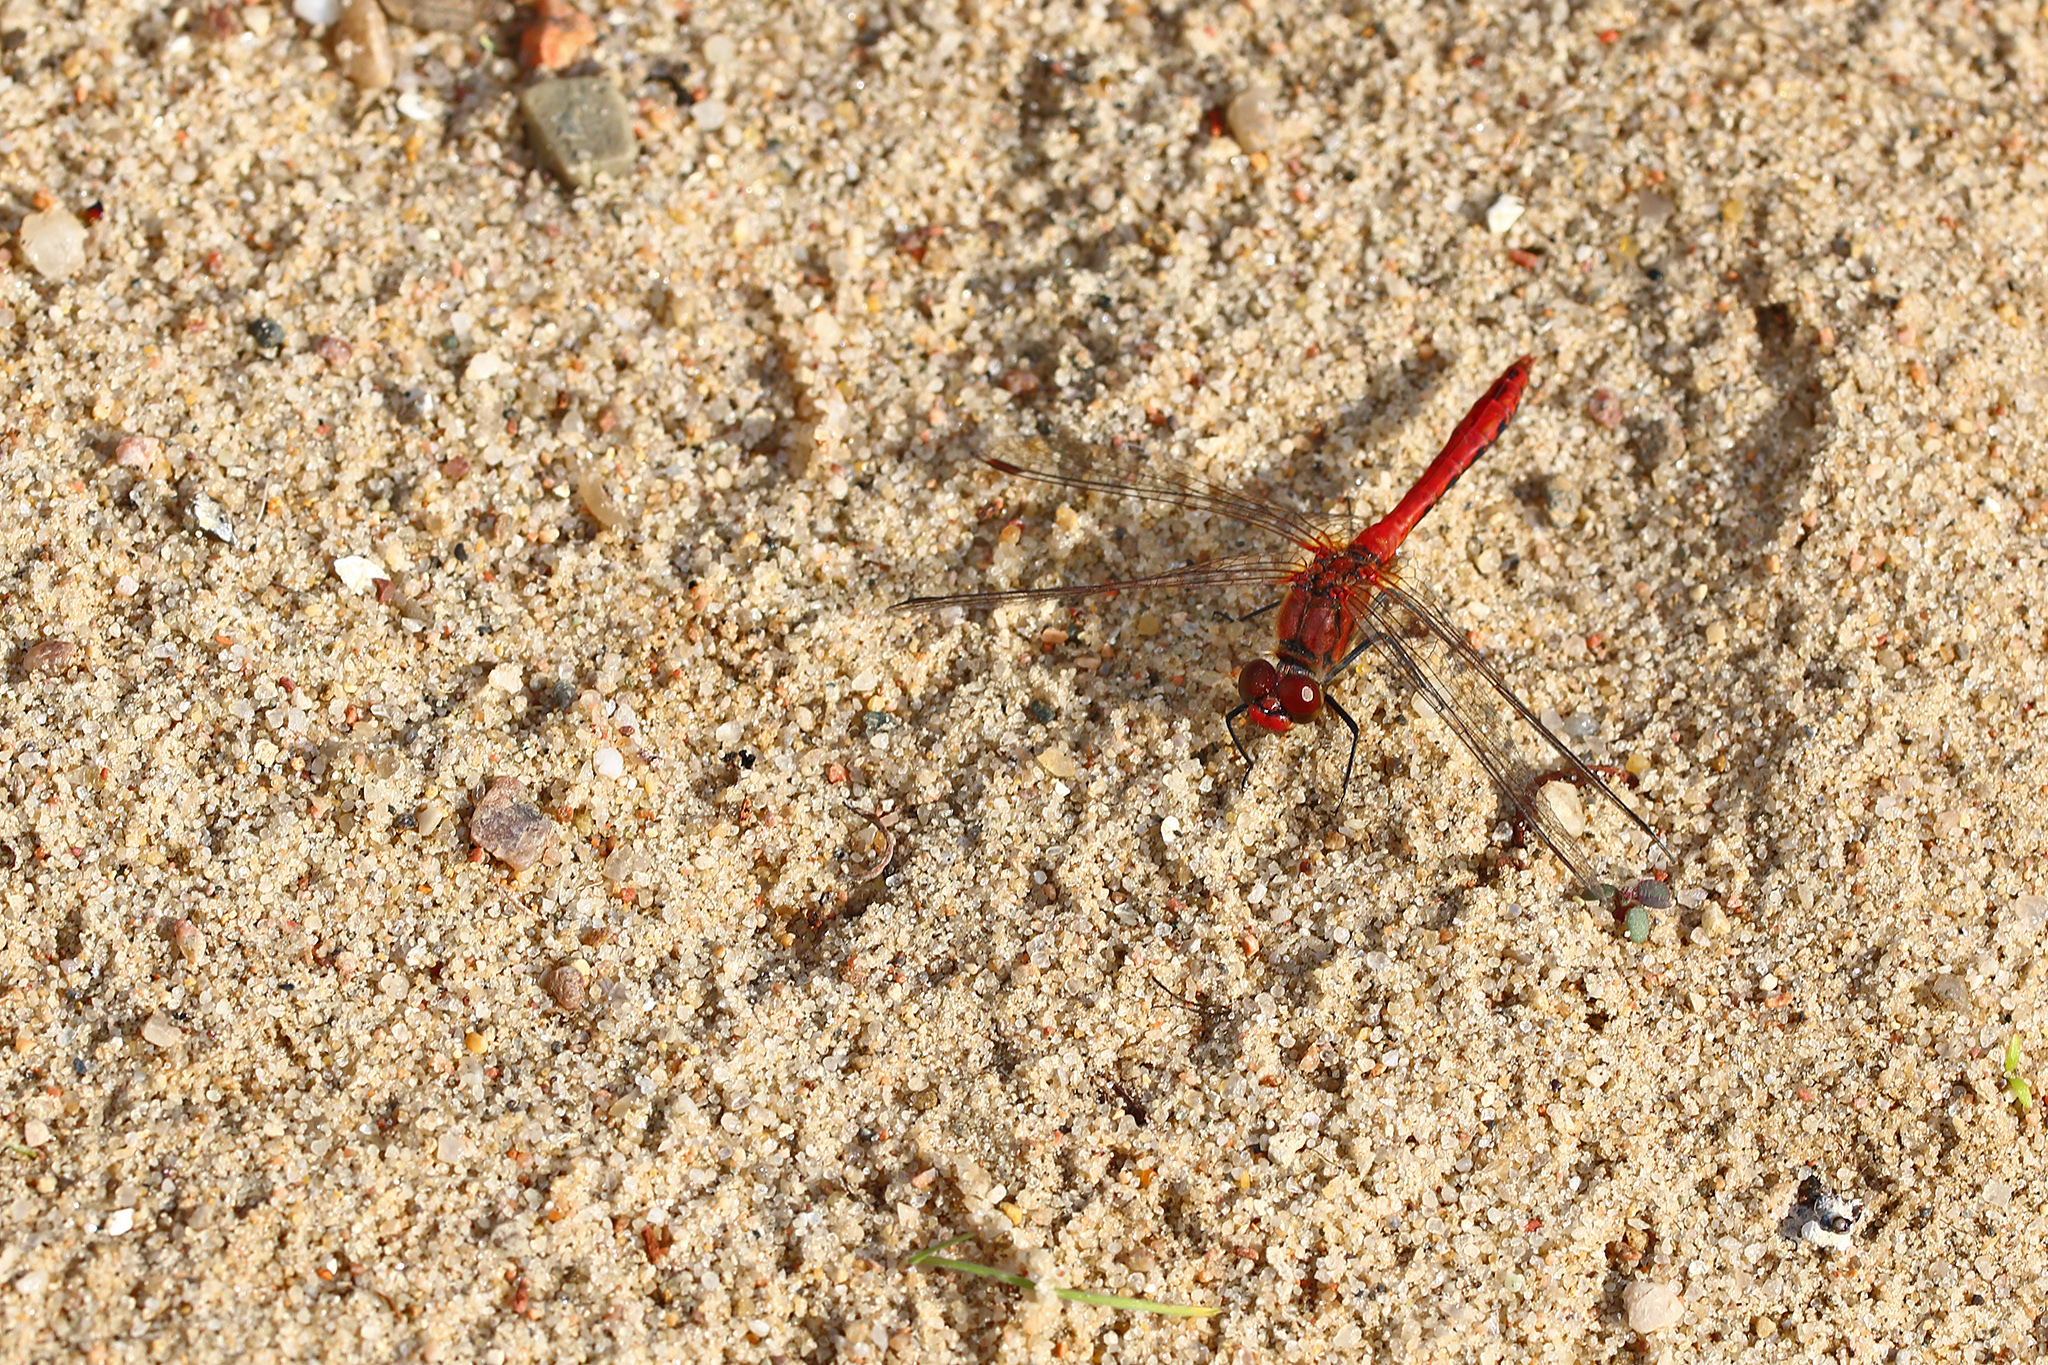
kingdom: Animalia
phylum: Arthropoda
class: Insecta
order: Odonata
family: Libellulidae
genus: Sympetrum
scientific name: Sympetrum sanguineum
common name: Ruddy darter
